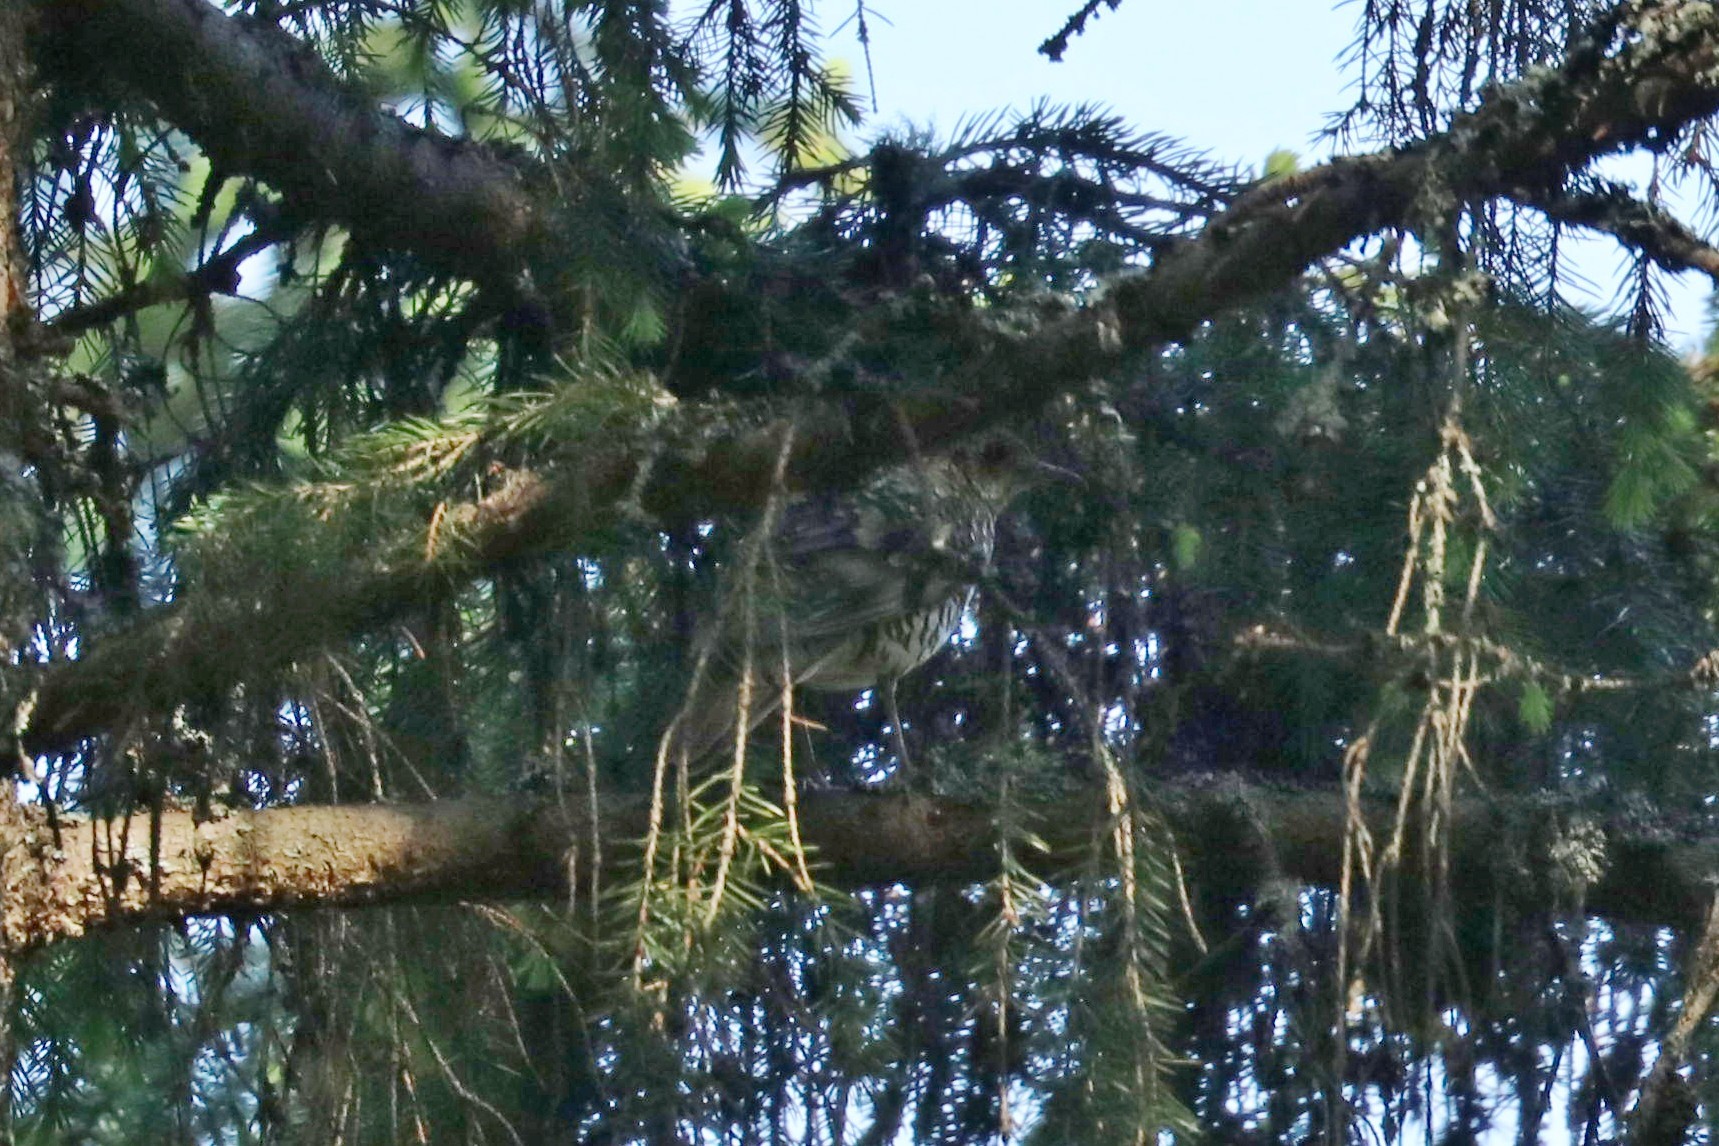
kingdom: Animalia
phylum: Chordata
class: Aves
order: Passeriformes
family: Turdidae
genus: Zoothera
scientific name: Zoothera aurea
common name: White's thrush
